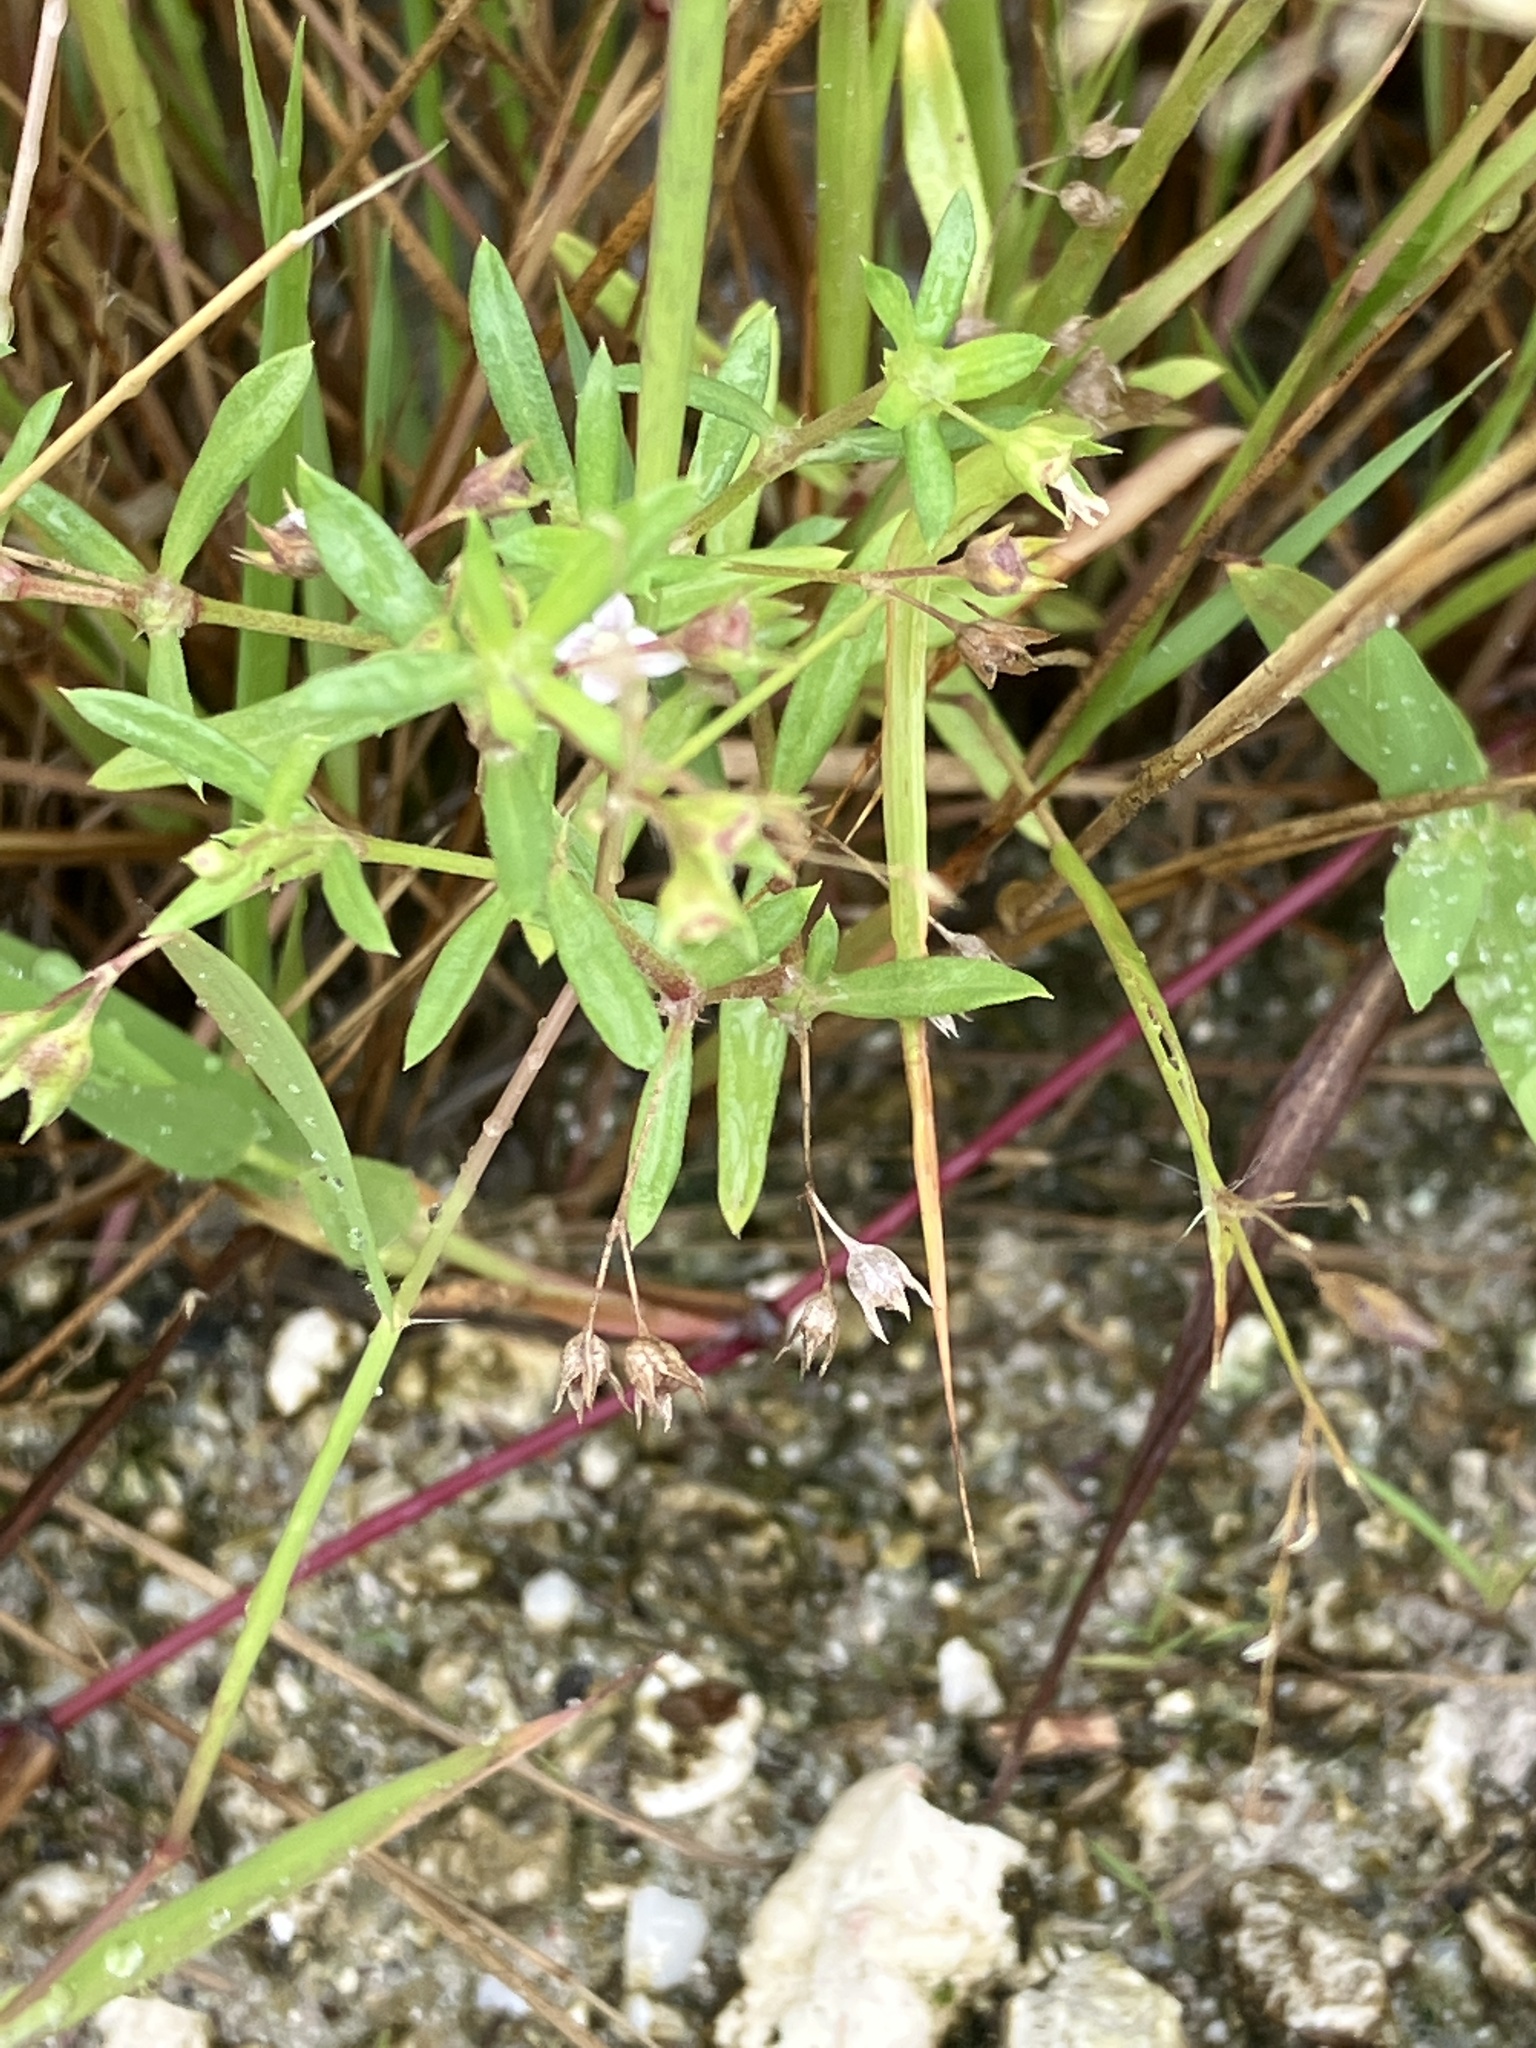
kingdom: Plantae
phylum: Tracheophyta
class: Magnoliopsida
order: Gentianales
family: Rubiaceae
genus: Oldenlandia
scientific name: Oldenlandia corymbosa
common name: Flat-top mille graines
